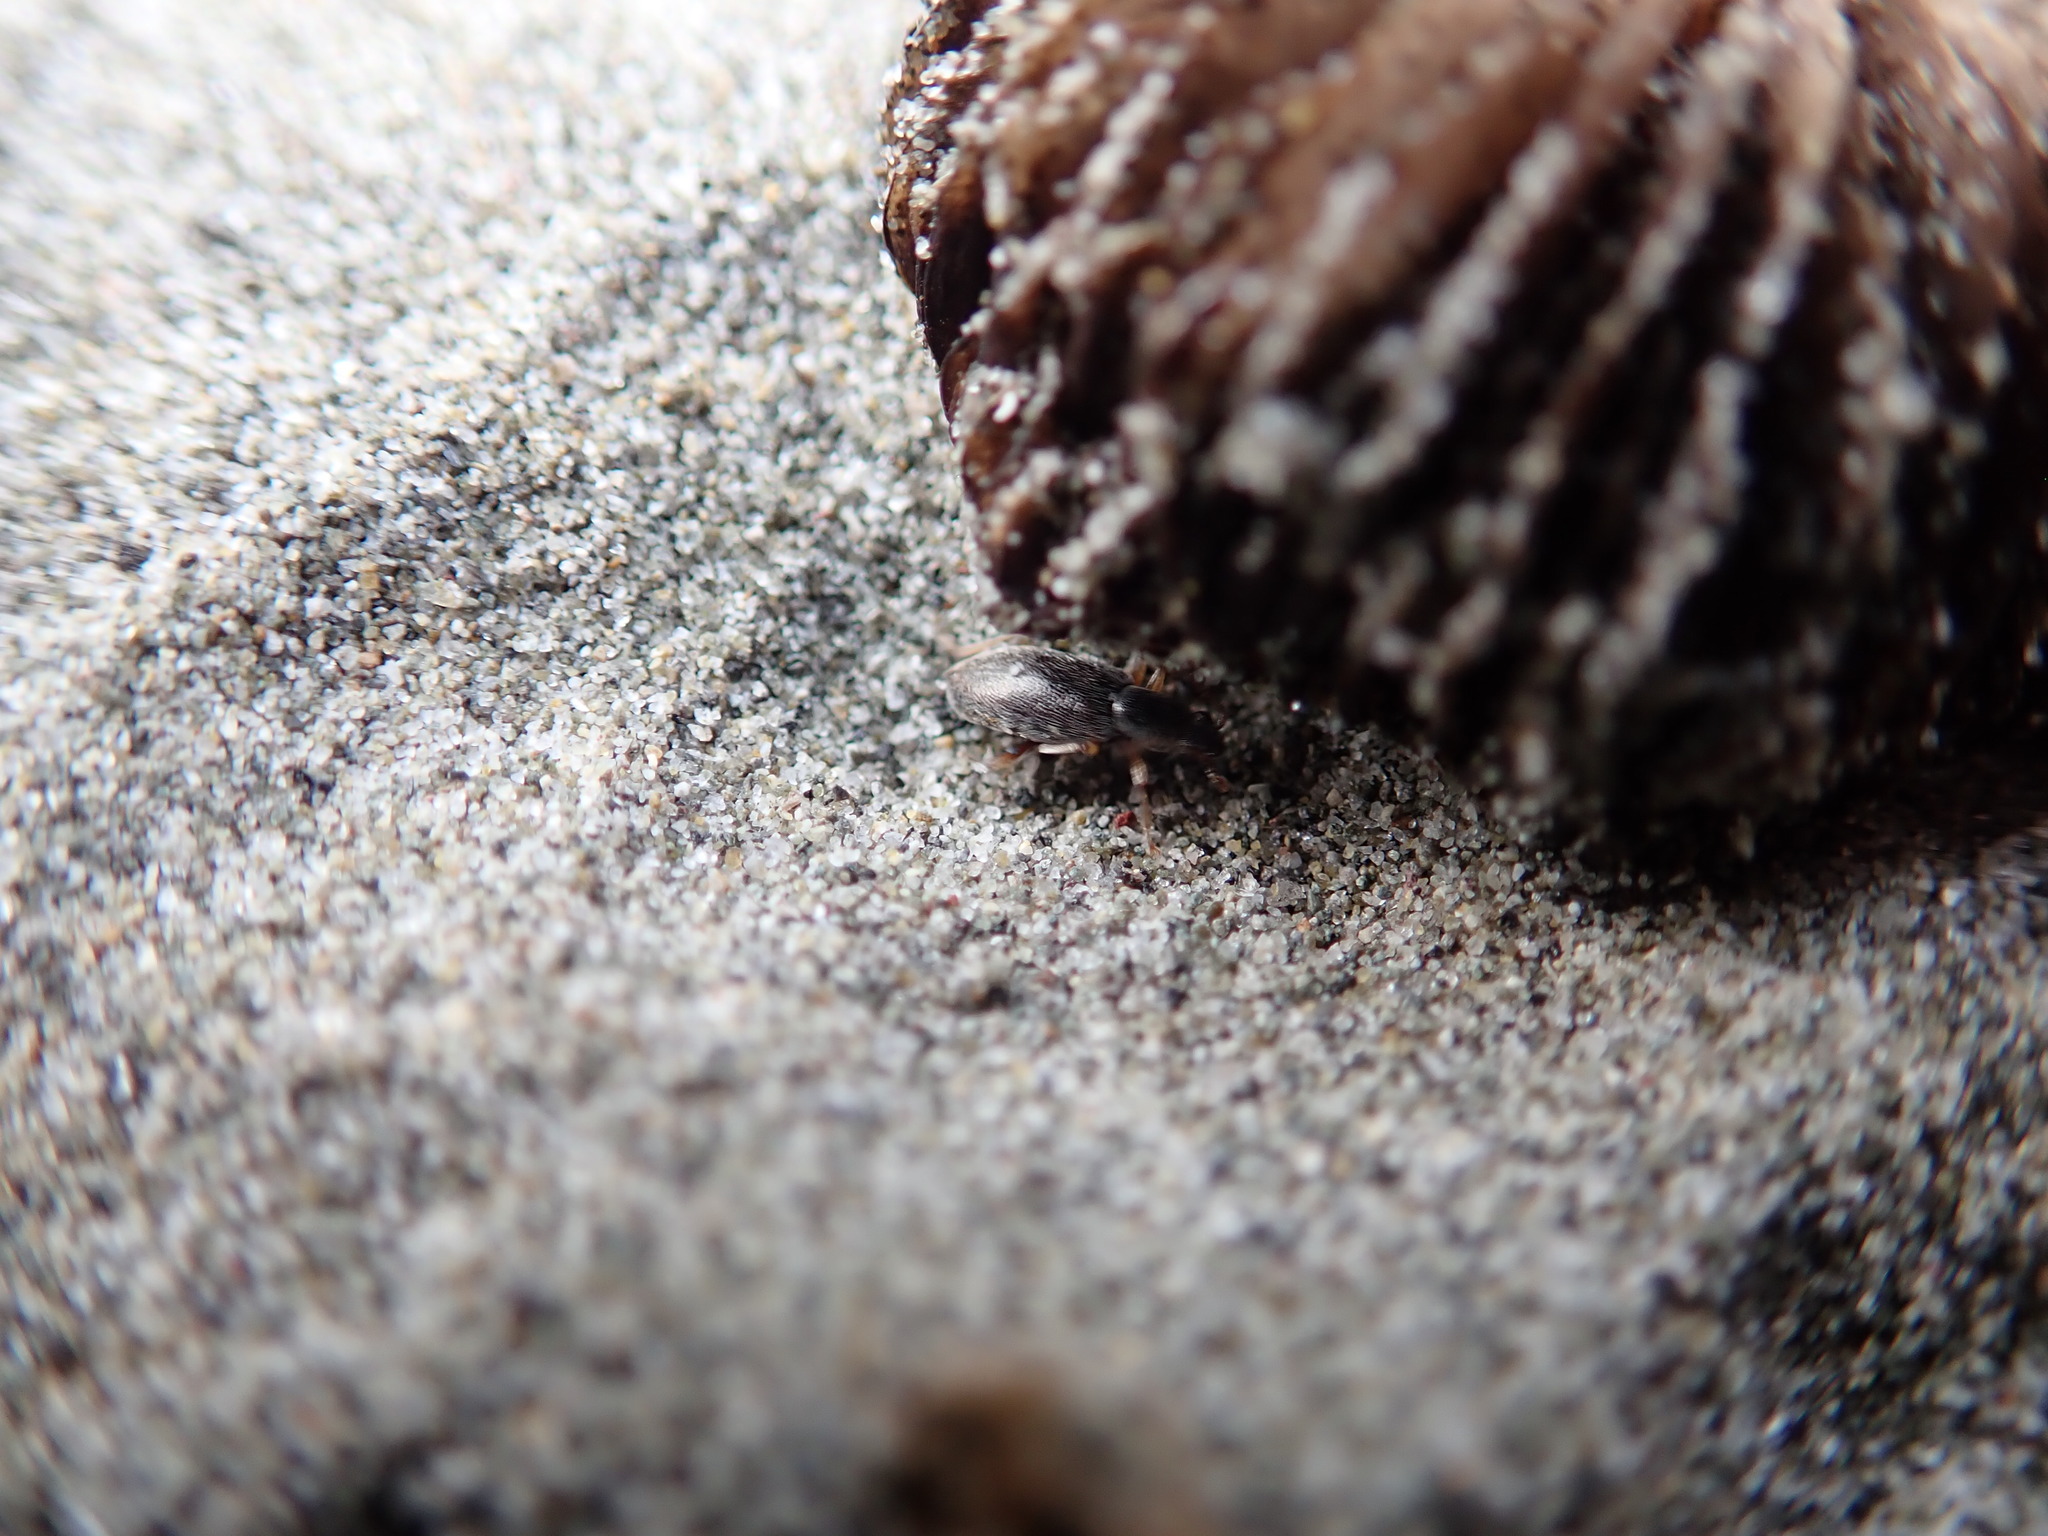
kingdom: Animalia
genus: Lagrioda
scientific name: Lagrioda brounii
